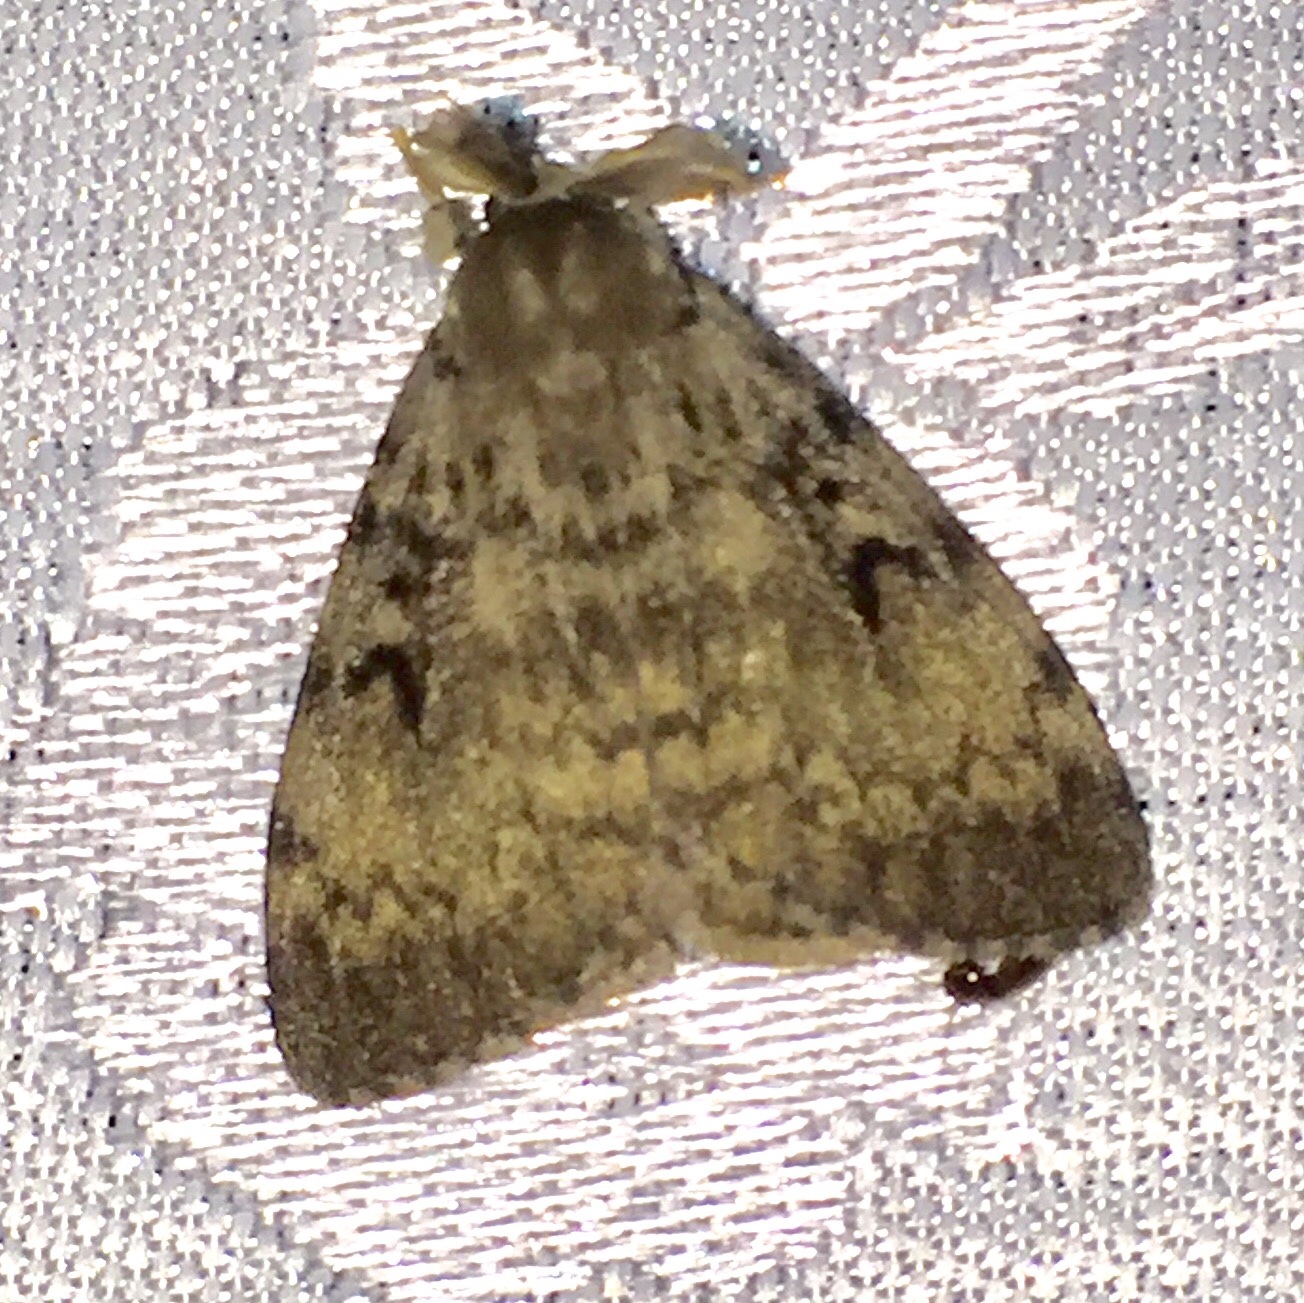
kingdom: Animalia
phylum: Arthropoda
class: Insecta
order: Lepidoptera
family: Erebidae
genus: Lymantria
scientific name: Lymantria dispar
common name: Gypsy moth
